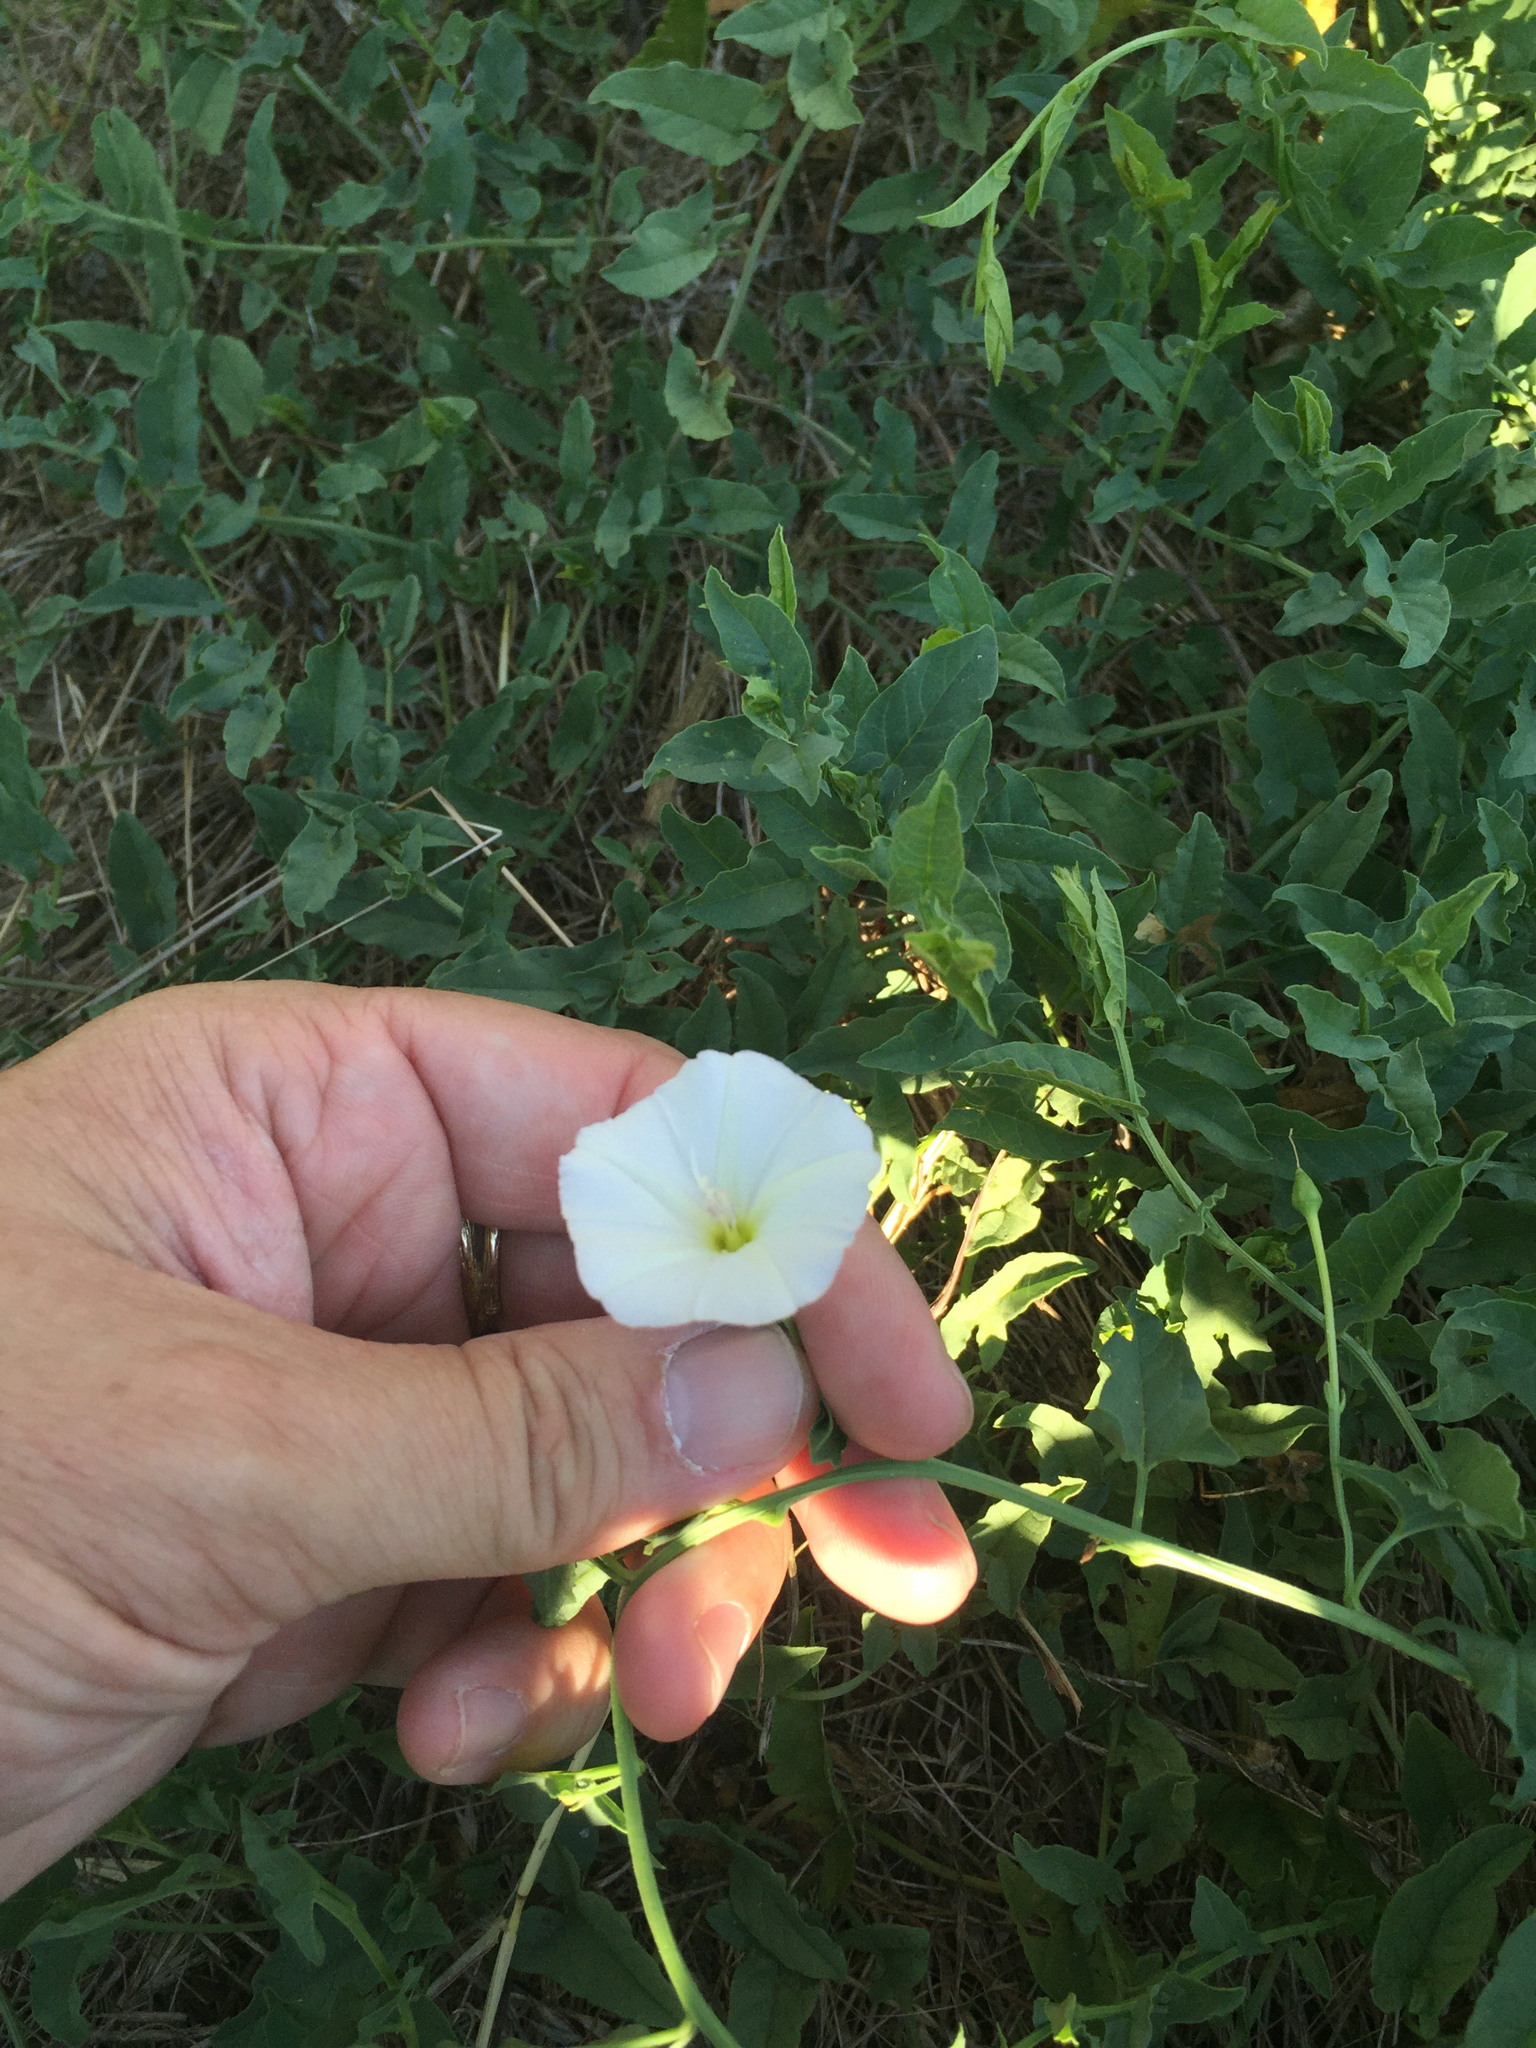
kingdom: Plantae
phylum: Tracheophyta
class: Magnoliopsida
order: Solanales
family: Convolvulaceae
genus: Convolvulus
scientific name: Convolvulus arvensis
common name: Field bindweed
